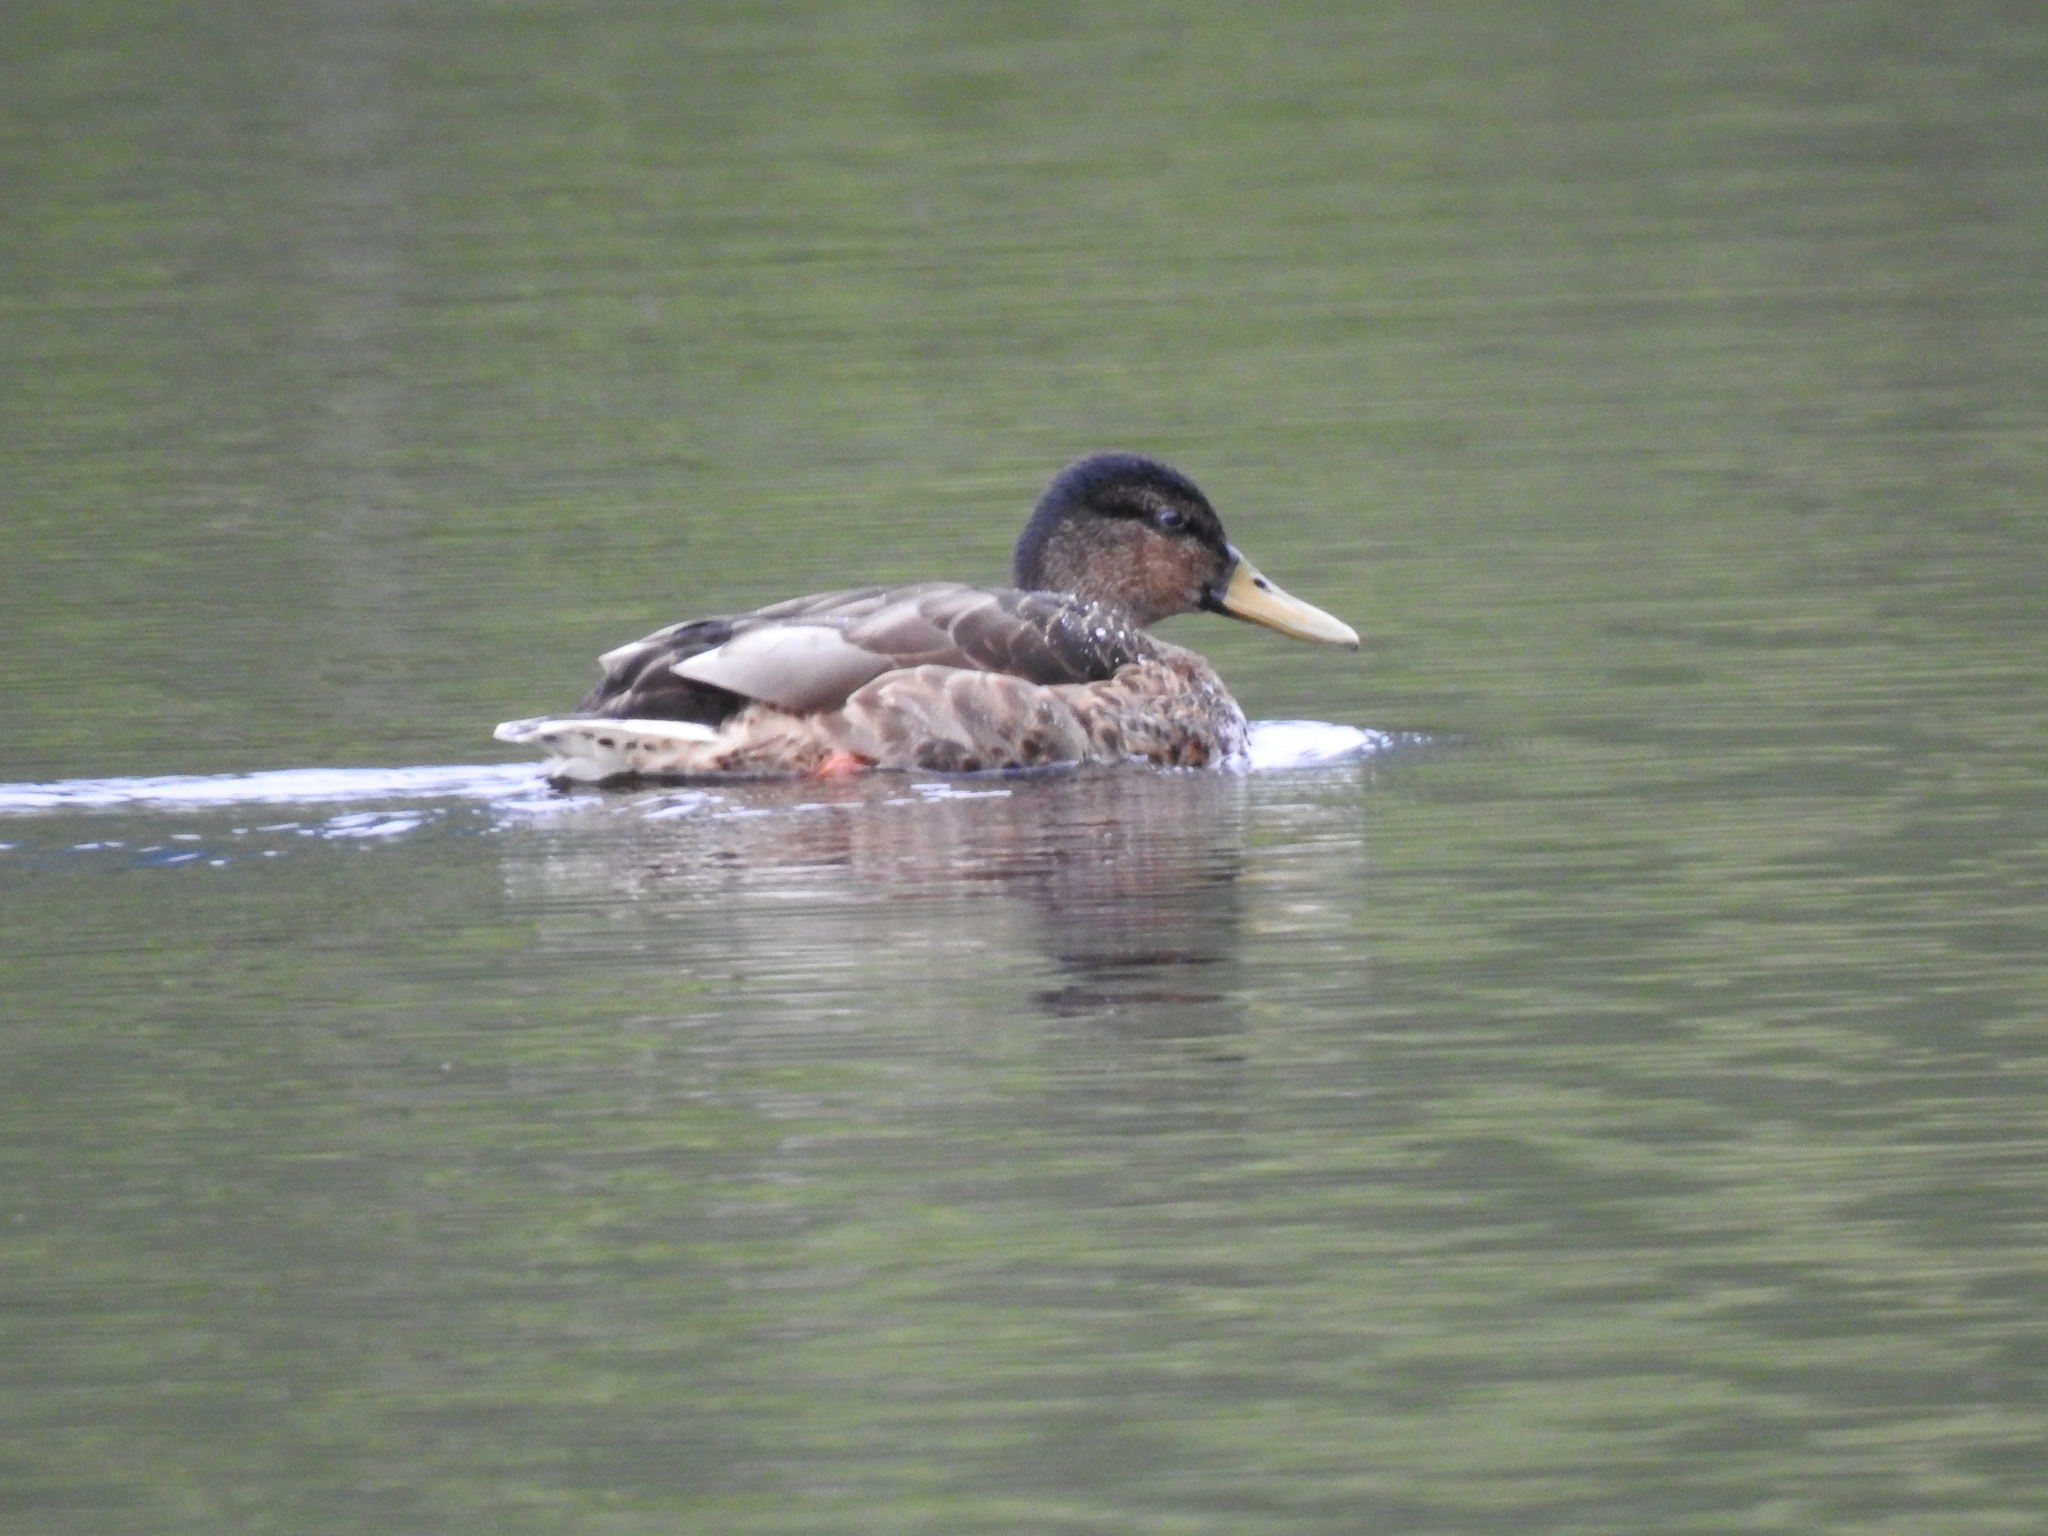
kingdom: Animalia
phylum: Chordata
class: Aves
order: Anseriformes
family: Anatidae
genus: Anas
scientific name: Anas platyrhynchos
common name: Mallard
